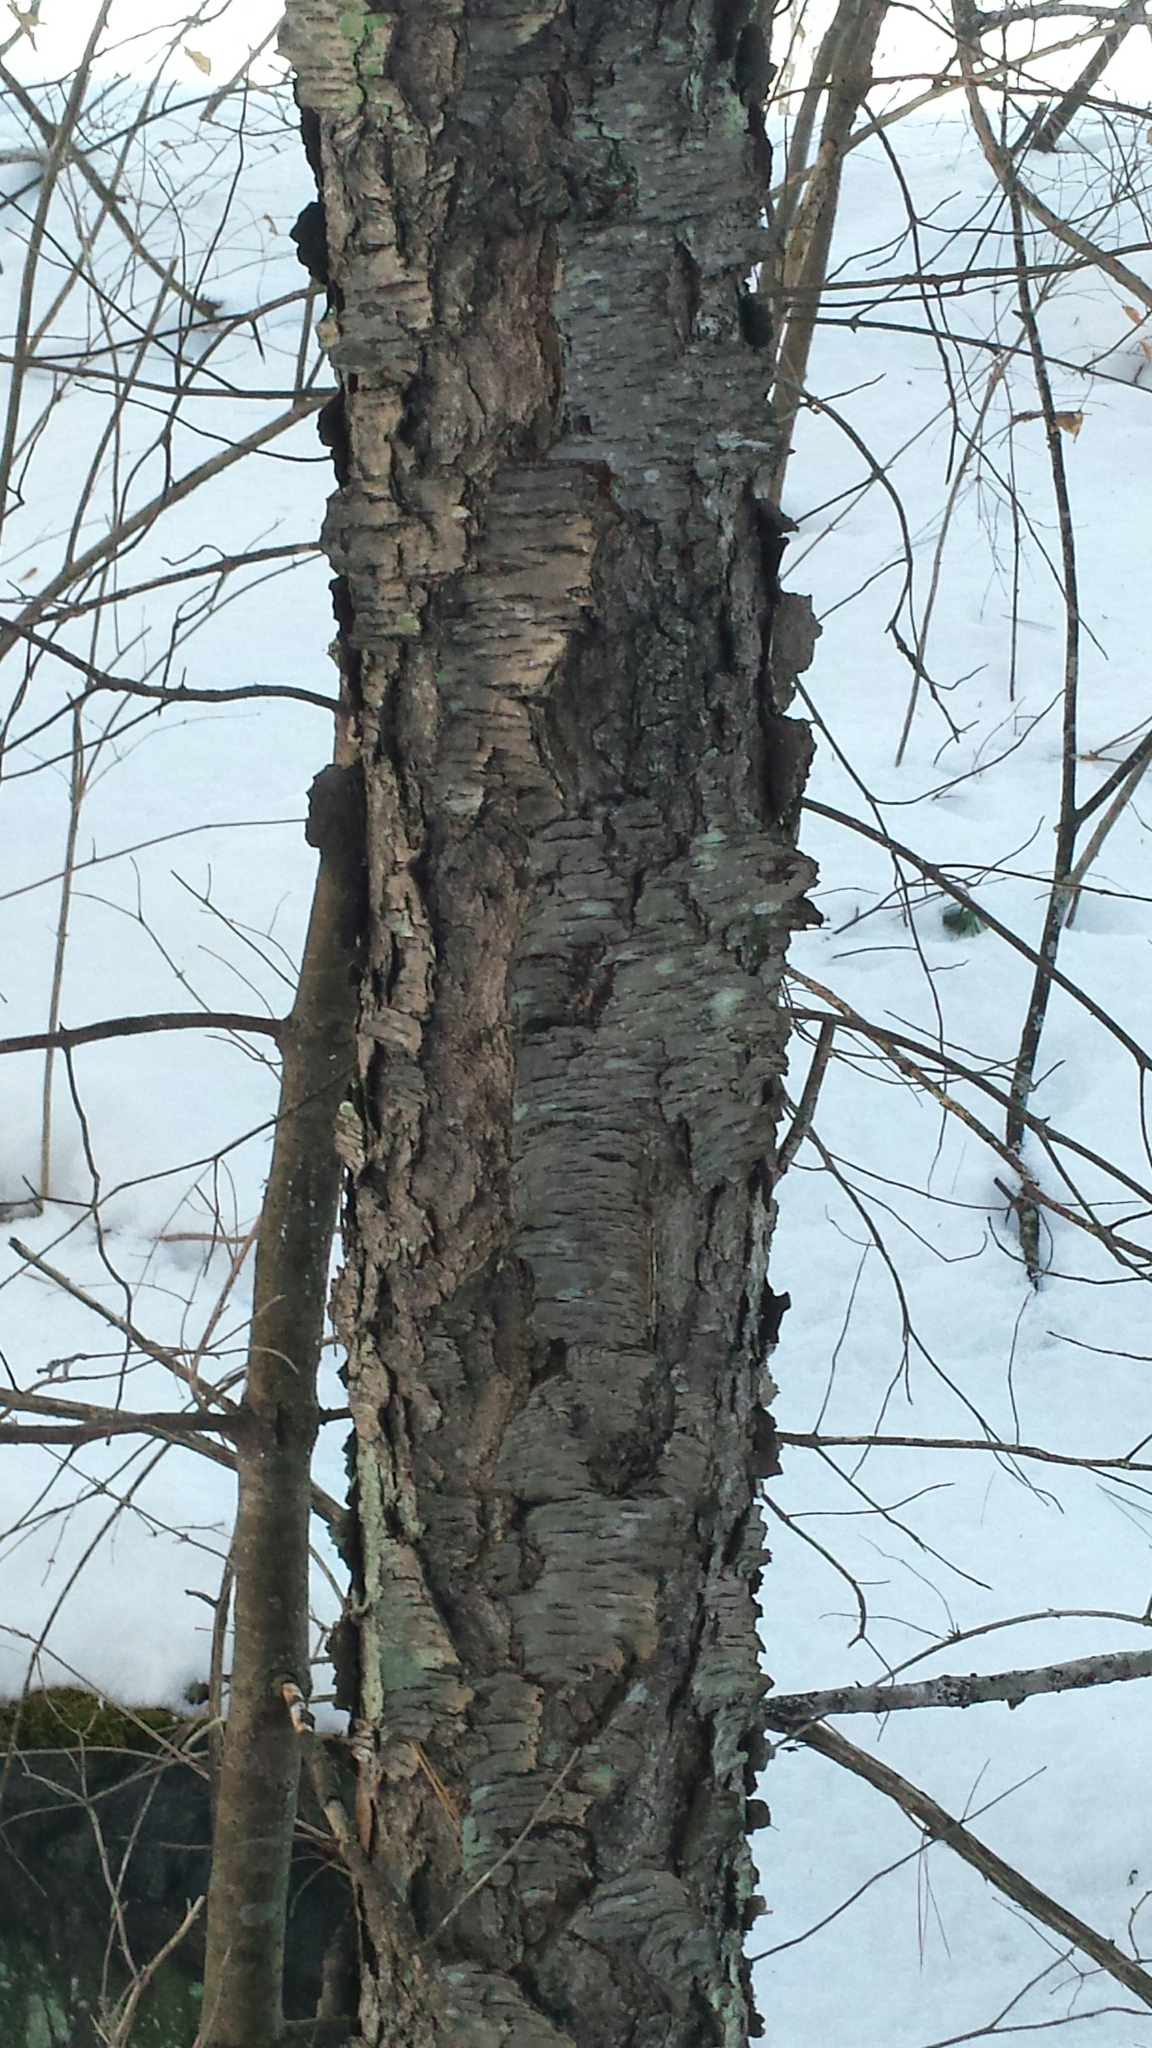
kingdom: Plantae
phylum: Tracheophyta
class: Magnoliopsida
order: Rosales
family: Rosaceae
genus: Prunus
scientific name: Prunus serotina
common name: Black cherry
